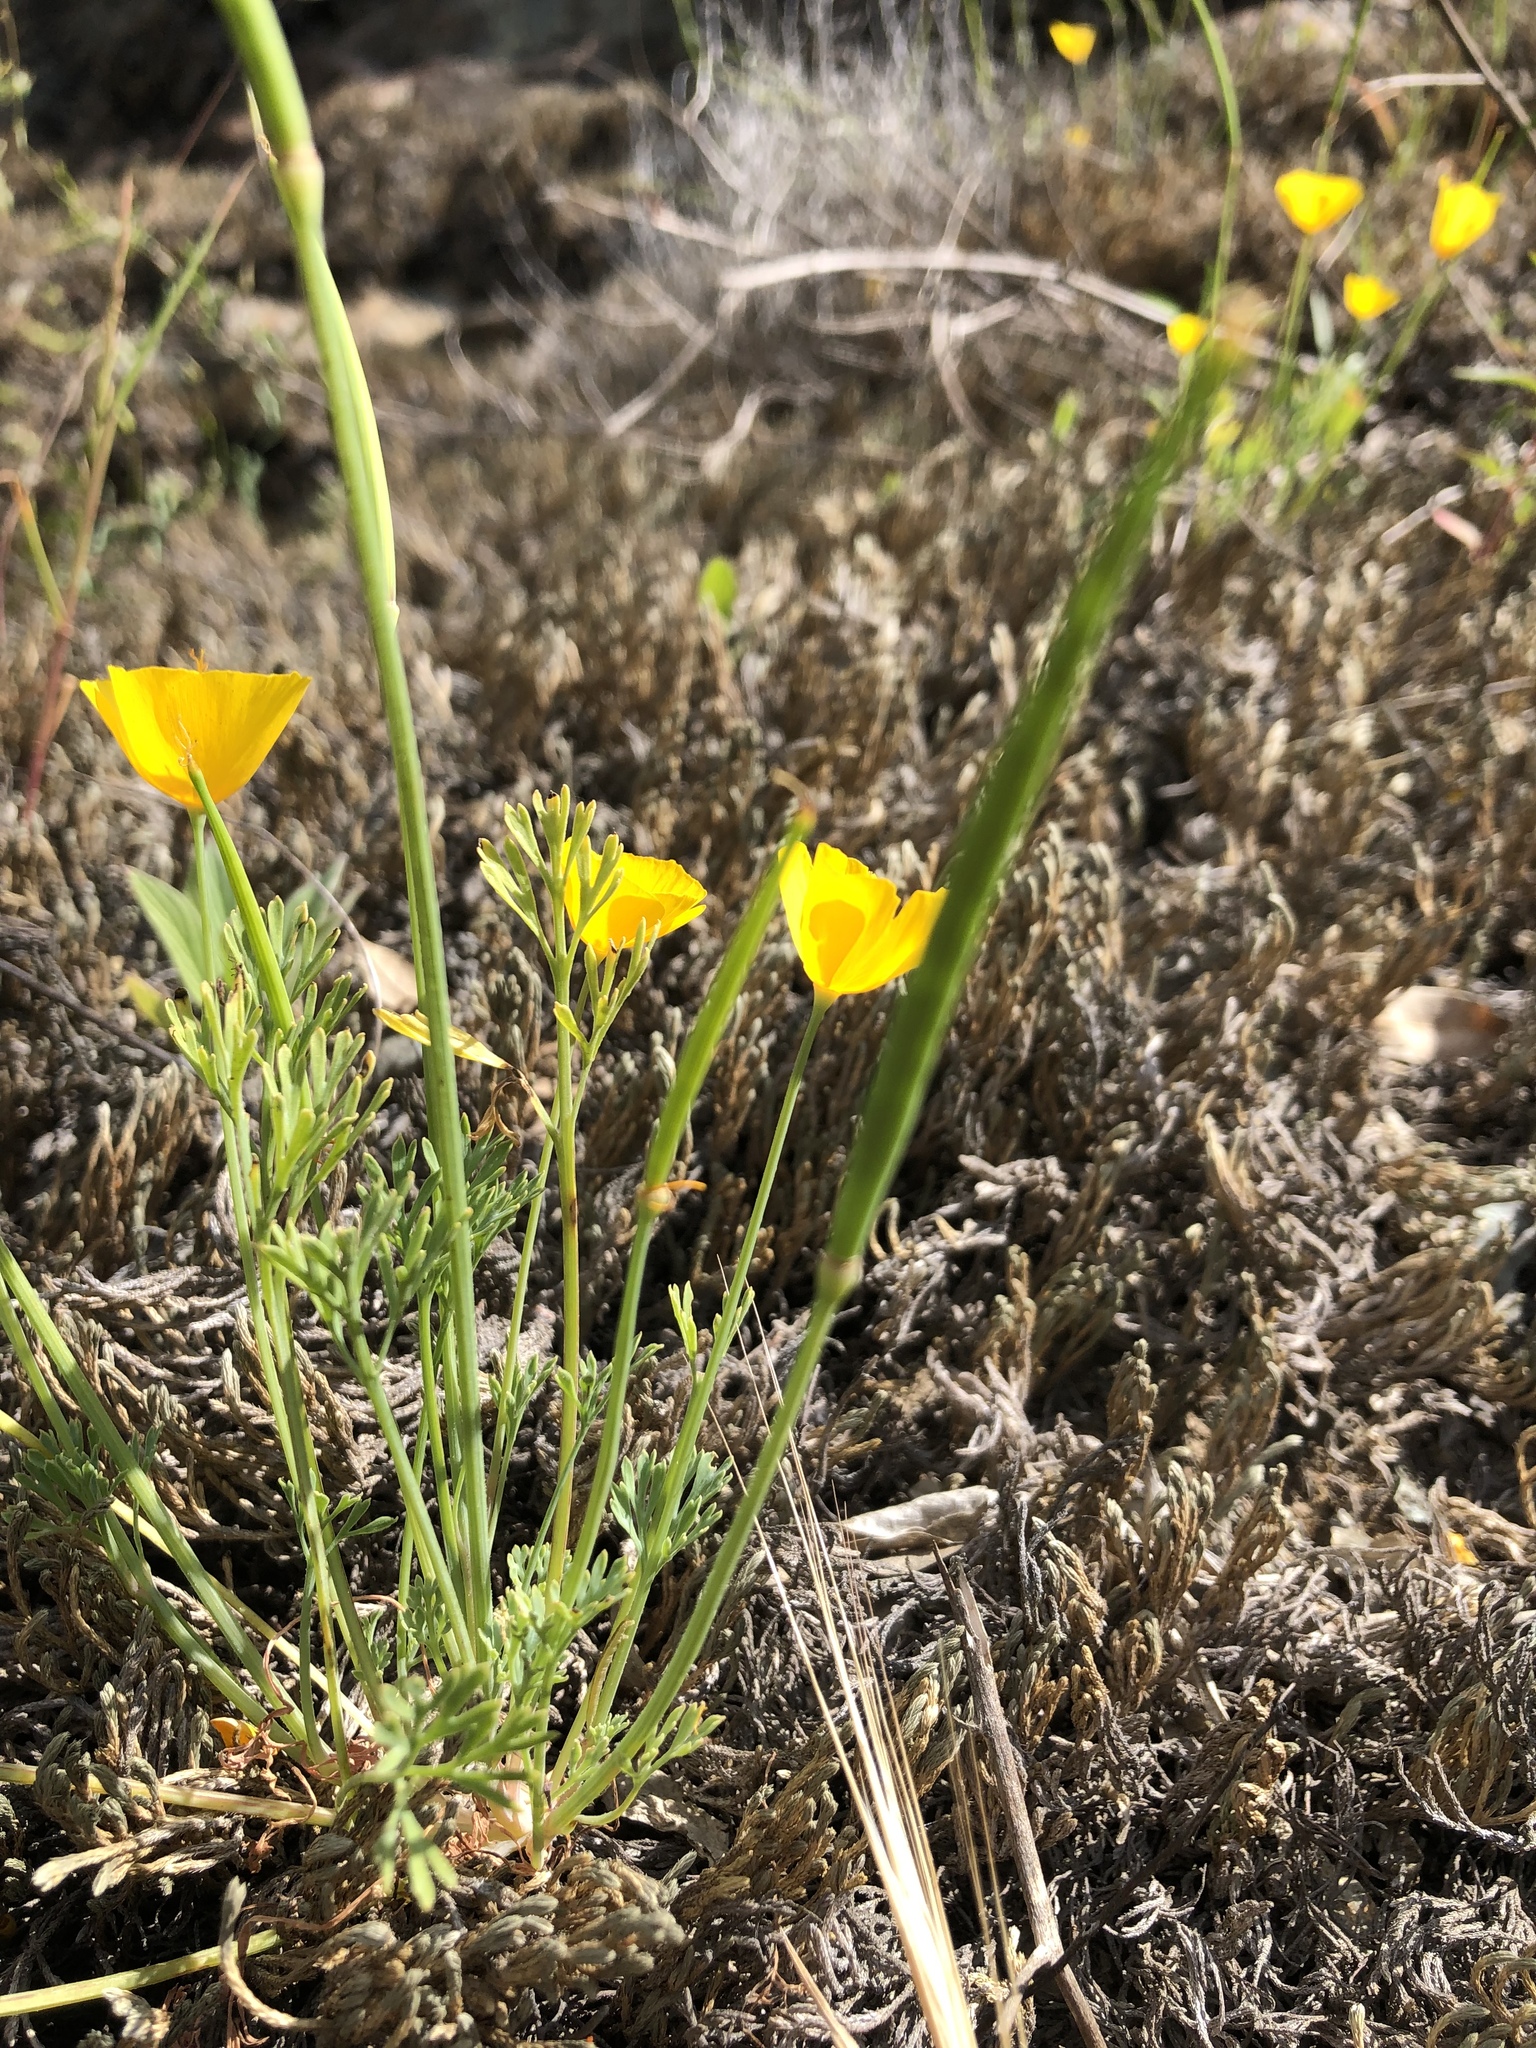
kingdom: Plantae
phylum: Tracheophyta
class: Magnoliopsida
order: Ranunculales
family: Papaveraceae
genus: Eschscholzia
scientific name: Eschscholzia caespitosa
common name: Tufted california-poppy
